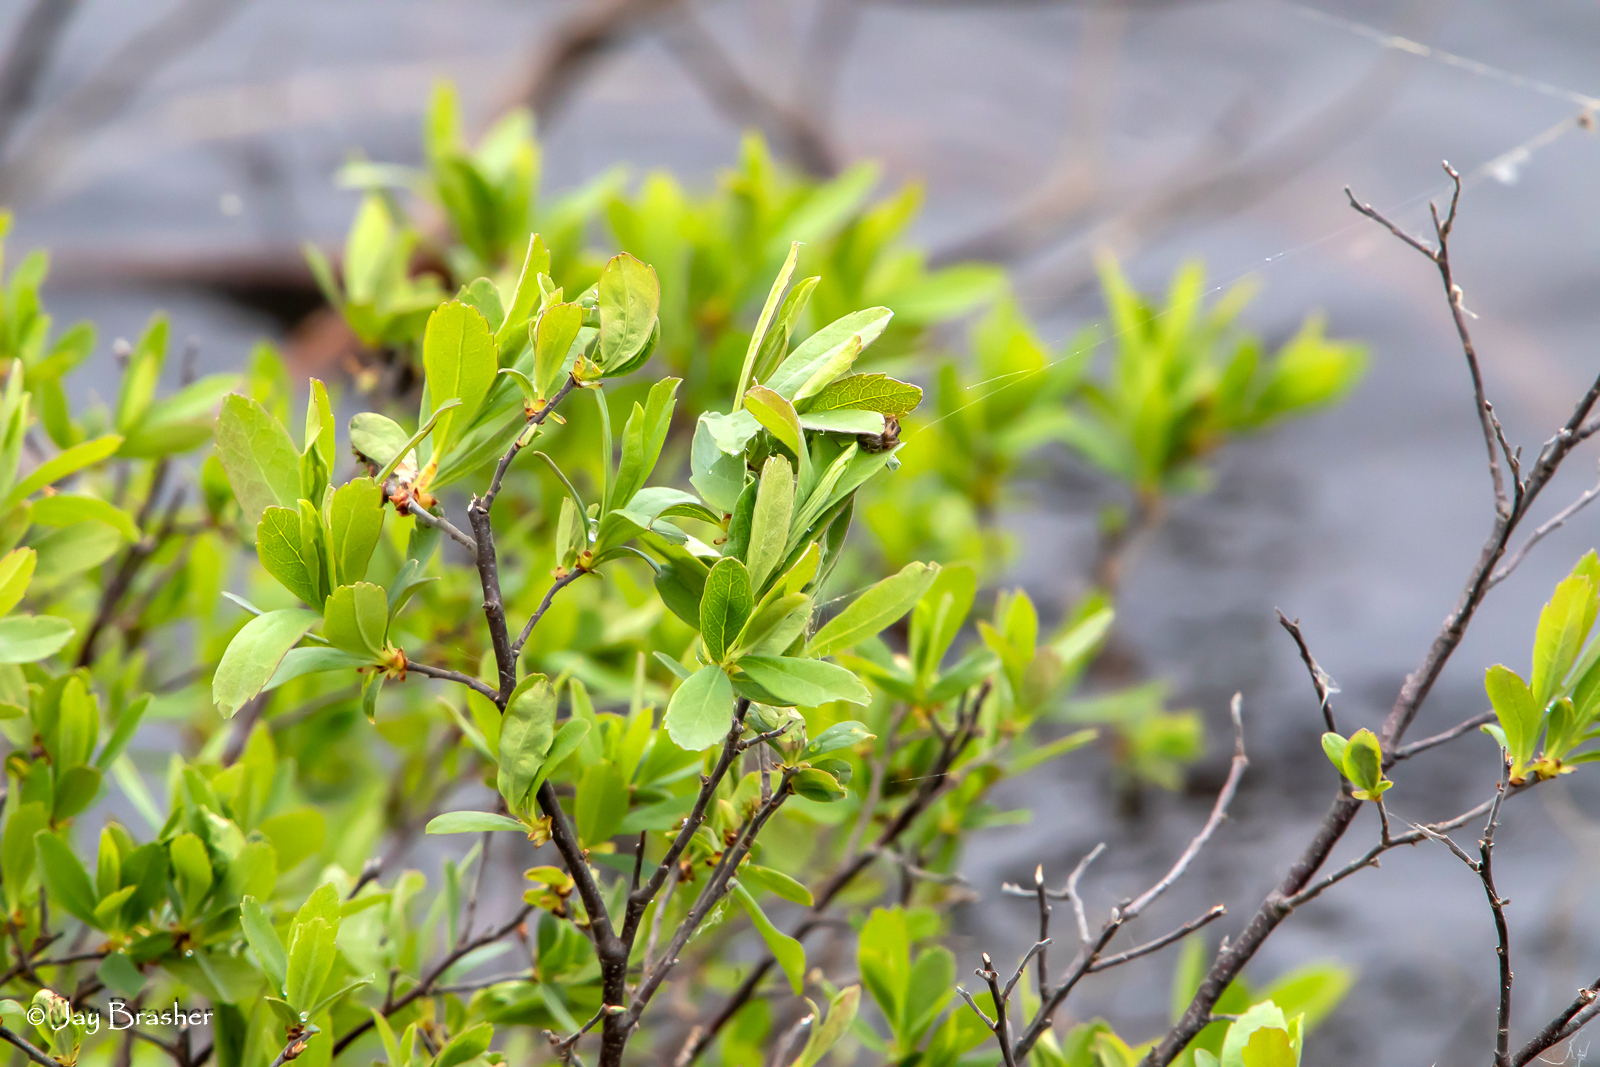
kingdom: Plantae
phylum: Tracheophyta
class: Magnoliopsida
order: Fagales
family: Myricaceae
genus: Myrica
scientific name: Myrica gale
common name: Sweet gale
